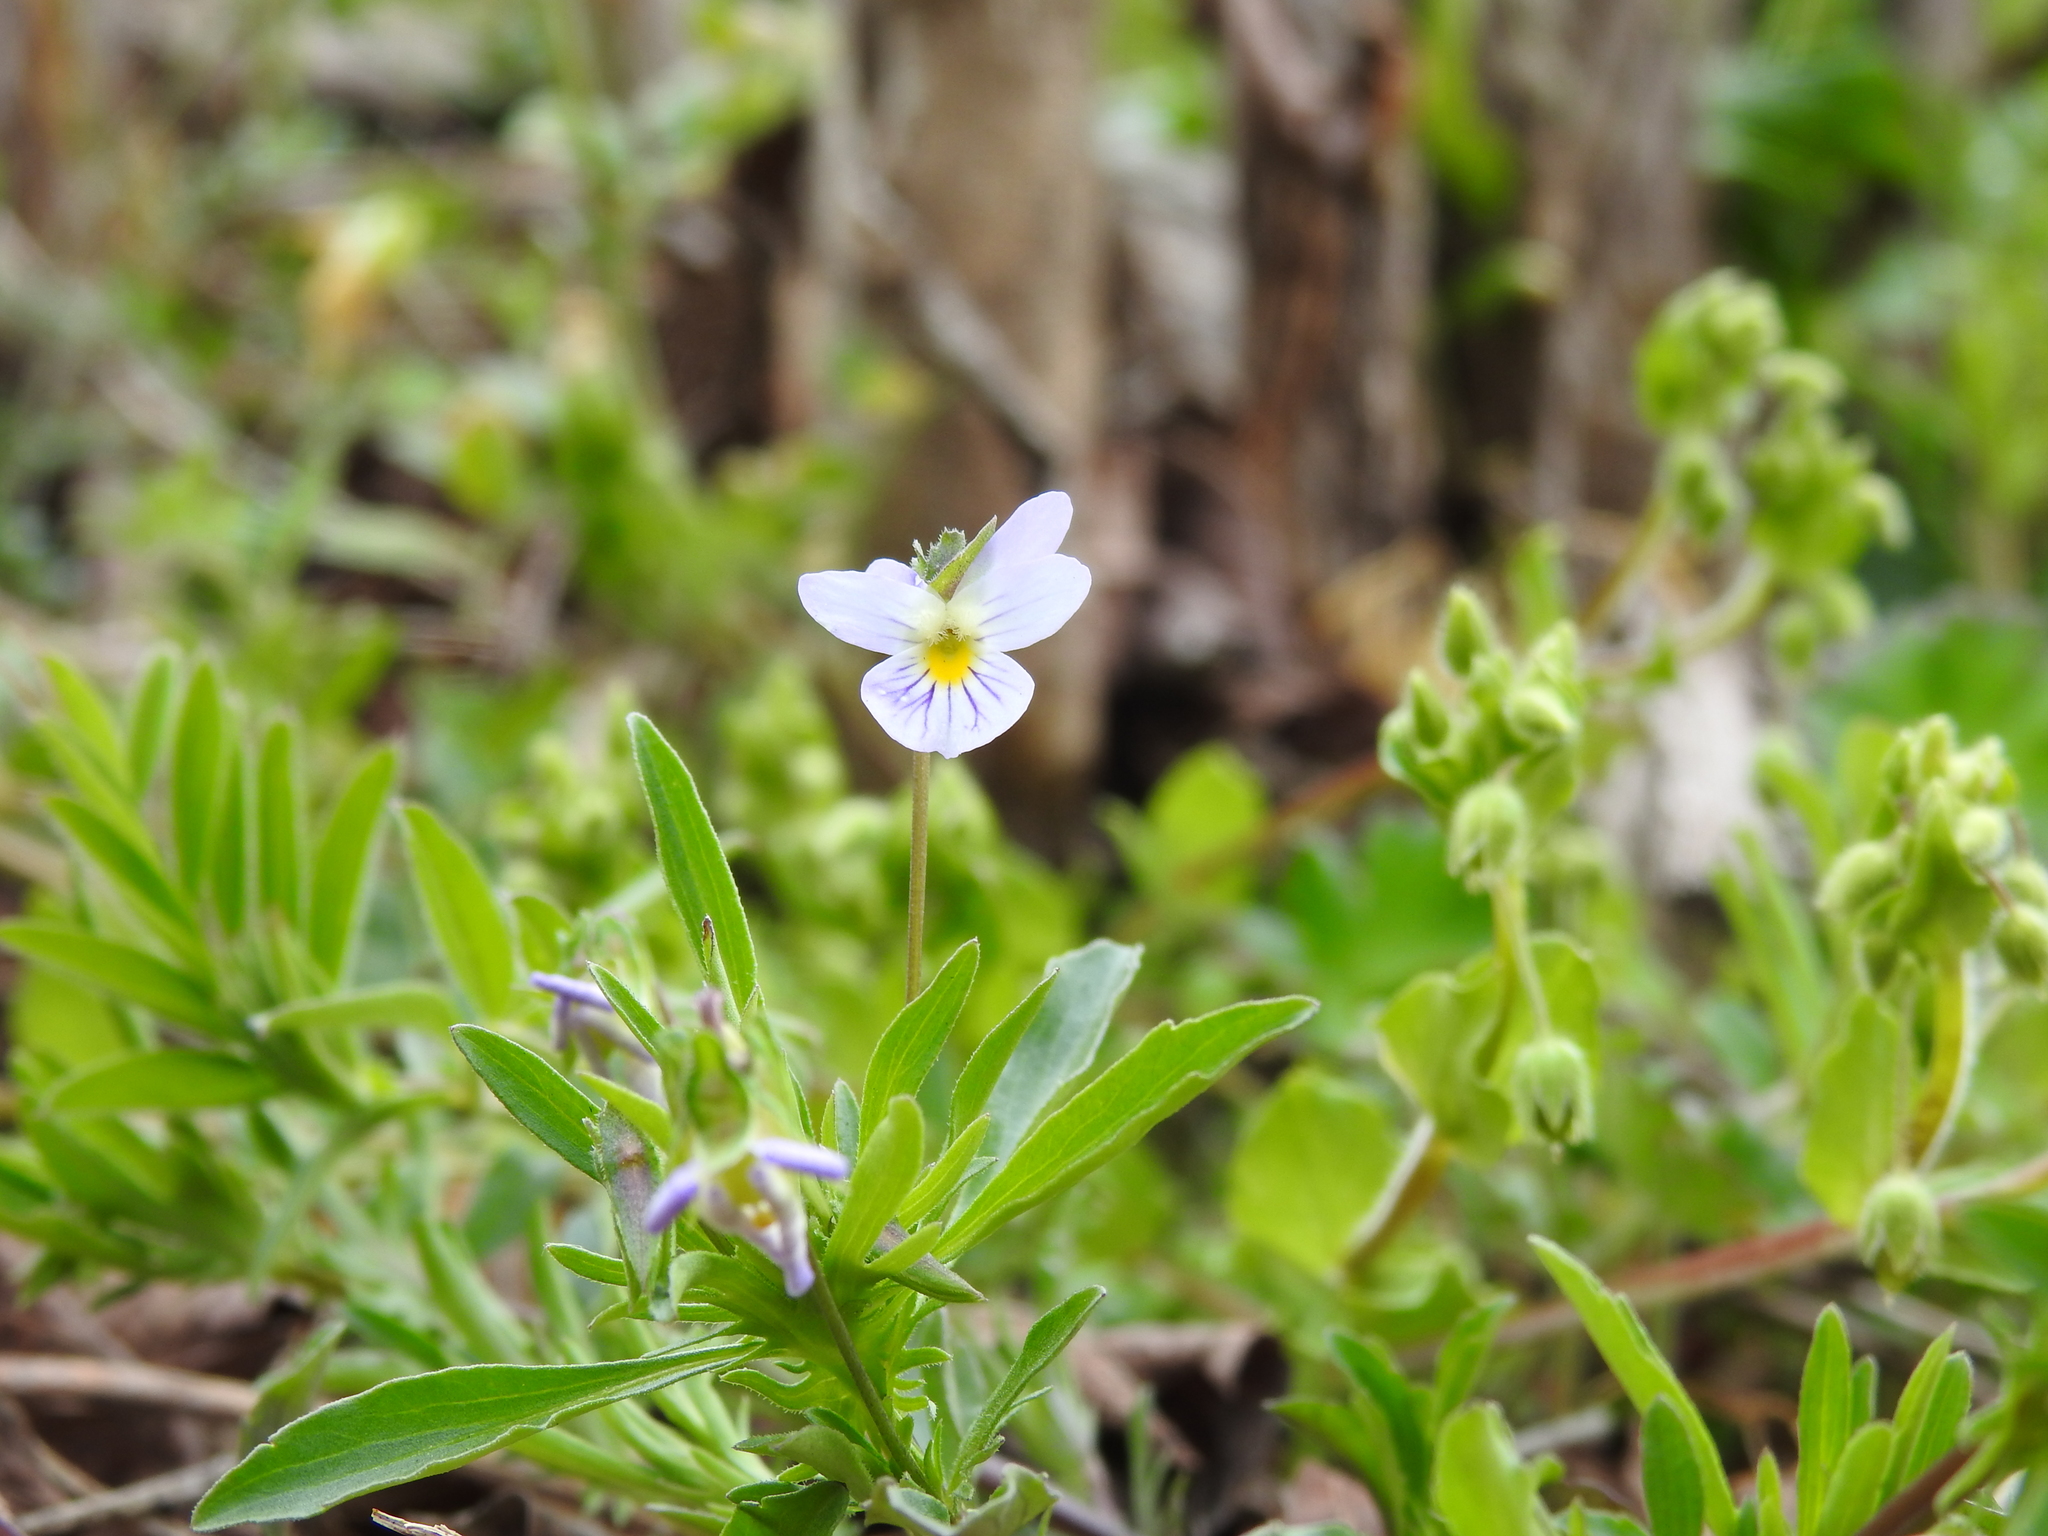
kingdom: Plantae
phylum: Tracheophyta
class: Magnoliopsida
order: Malpighiales
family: Violaceae
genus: Viola
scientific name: Viola rafinesquei
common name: American field pansy
